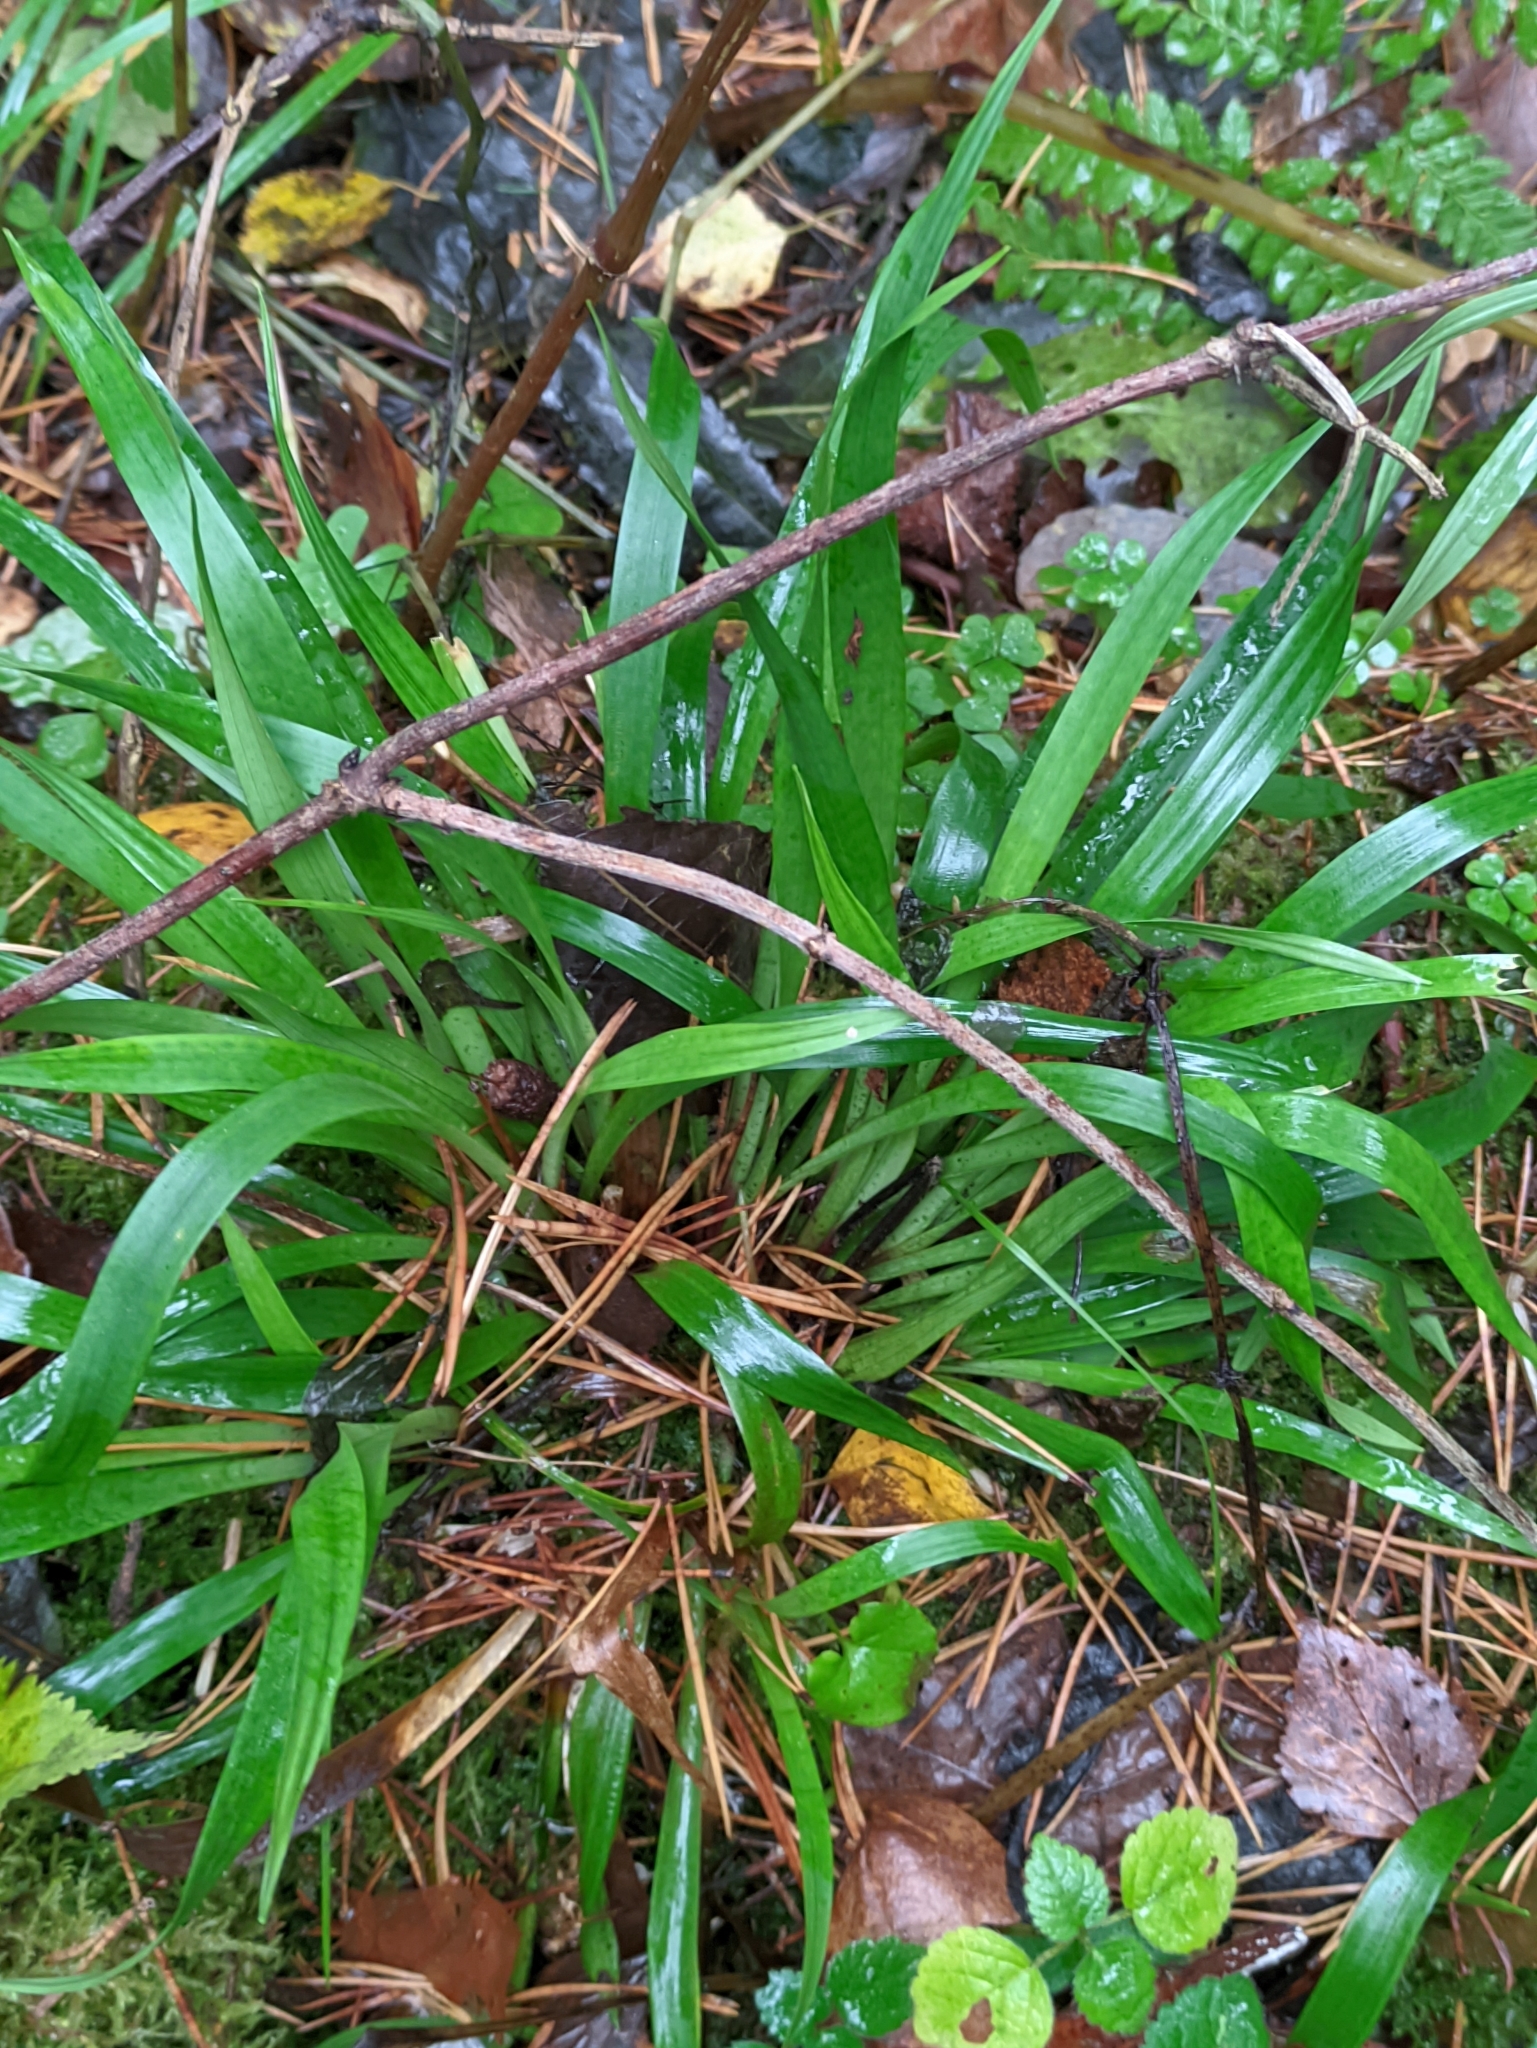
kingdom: Plantae
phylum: Tracheophyta
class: Liliopsida
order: Poales
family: Juncaceae
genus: Luzula
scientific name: Luzula pilosa
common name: Hairy wood-rush
